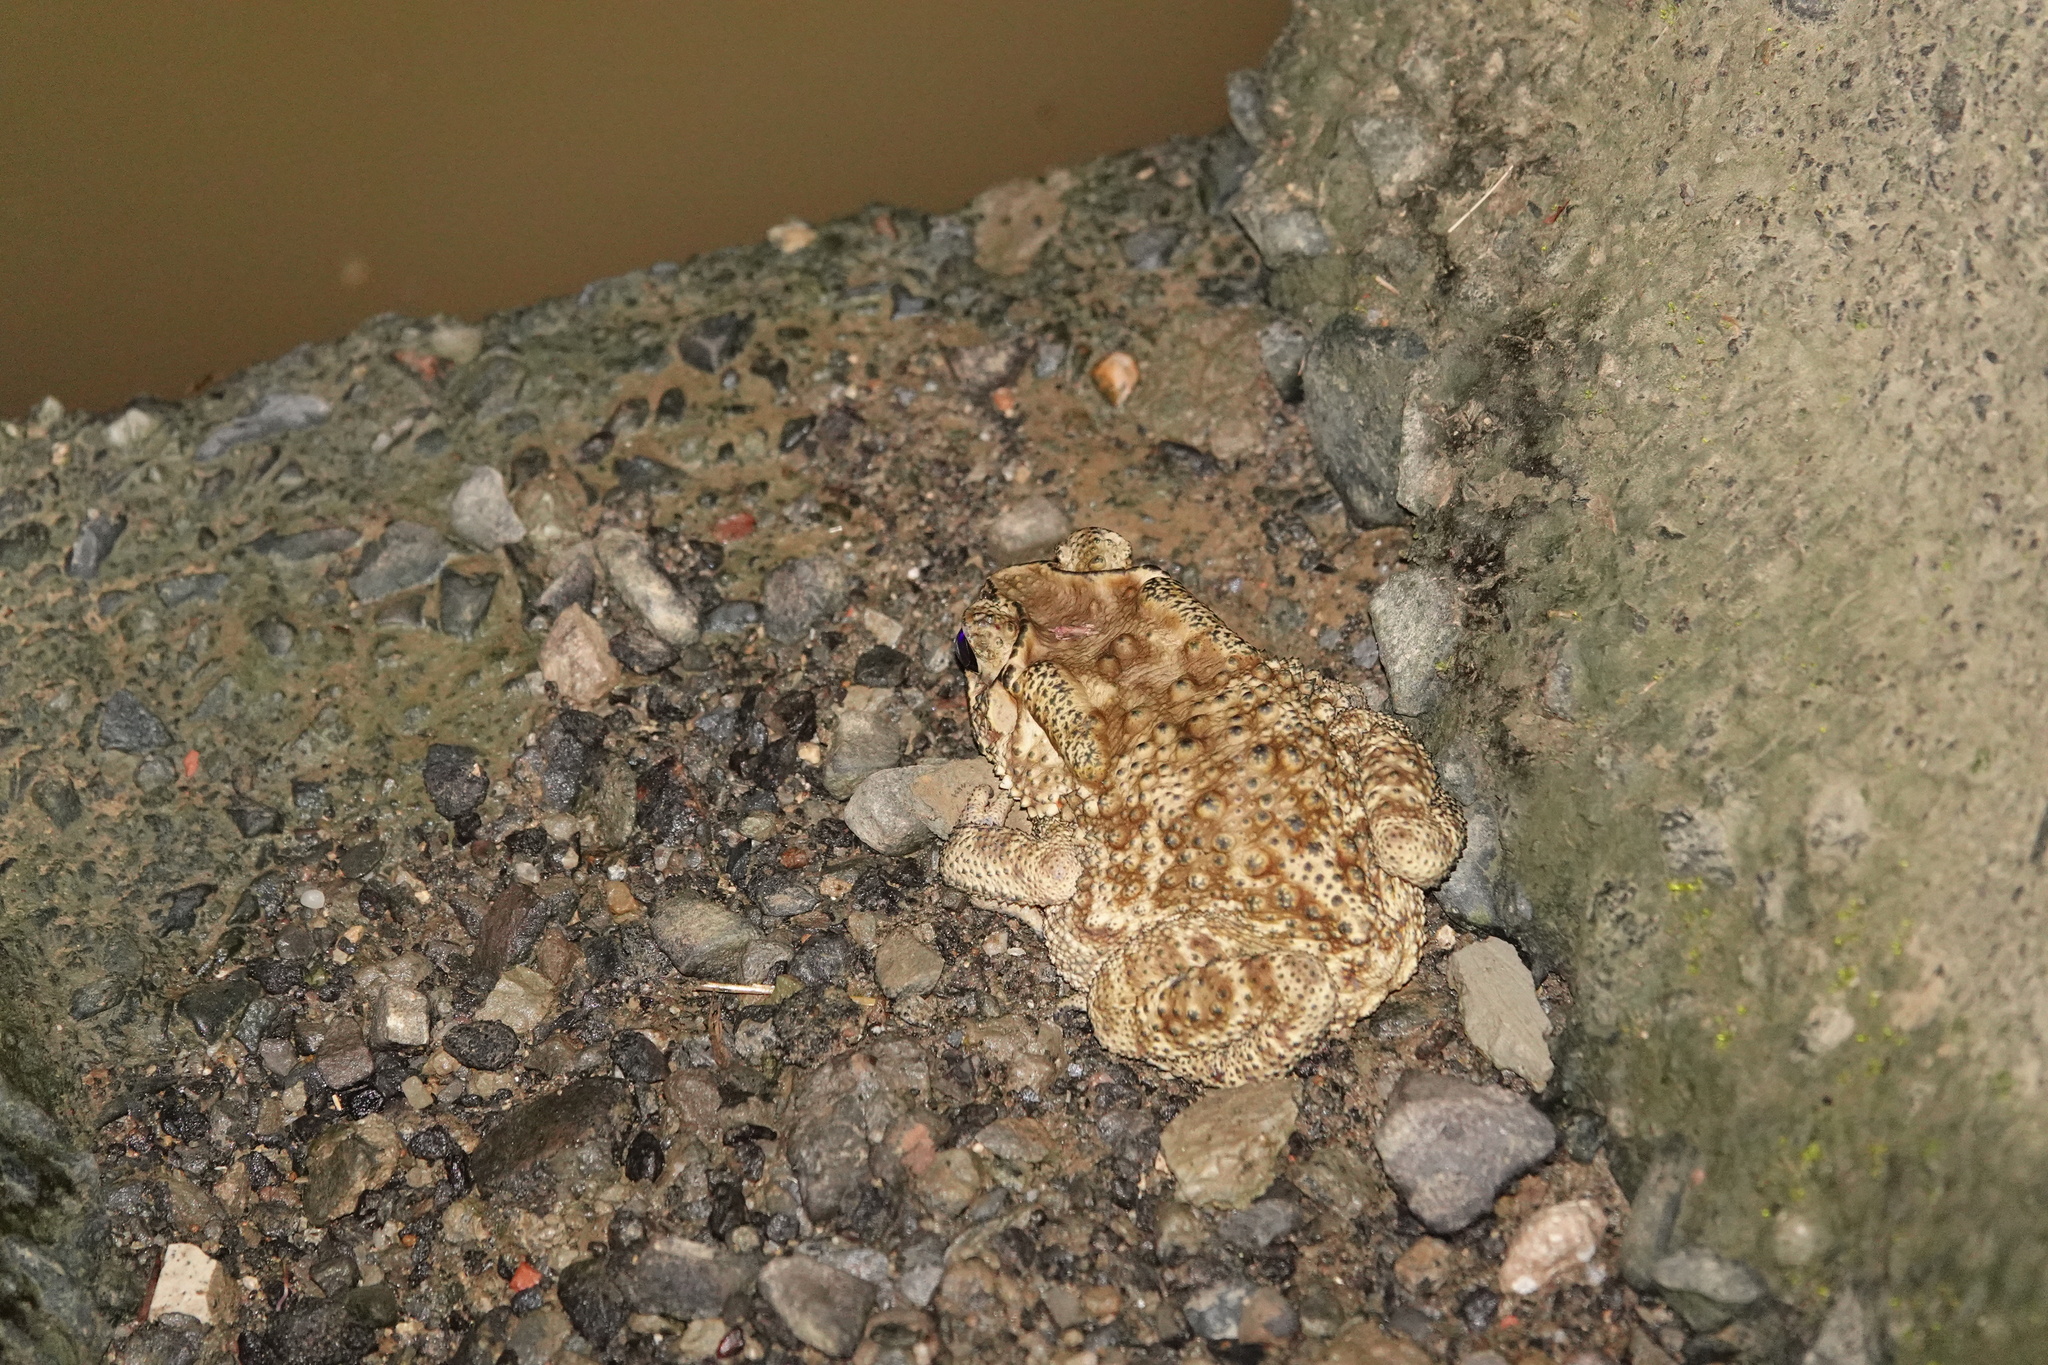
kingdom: Animalia
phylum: Chordata
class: Amphibia
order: Anura
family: Bufonidae
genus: Duttaphrynus
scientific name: Duttaphrynus melanostictus
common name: Common sunda toad
